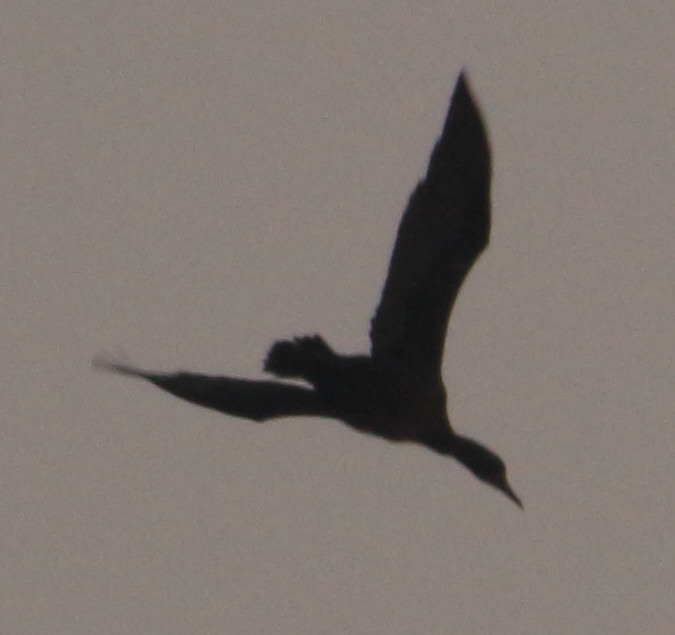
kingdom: Animalia
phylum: Chordata
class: Aves
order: Suliformes
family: Phalacrocoracidae
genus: Phalacrocorax
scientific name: Phalacrocorax auritus
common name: Double-crested cormorant
